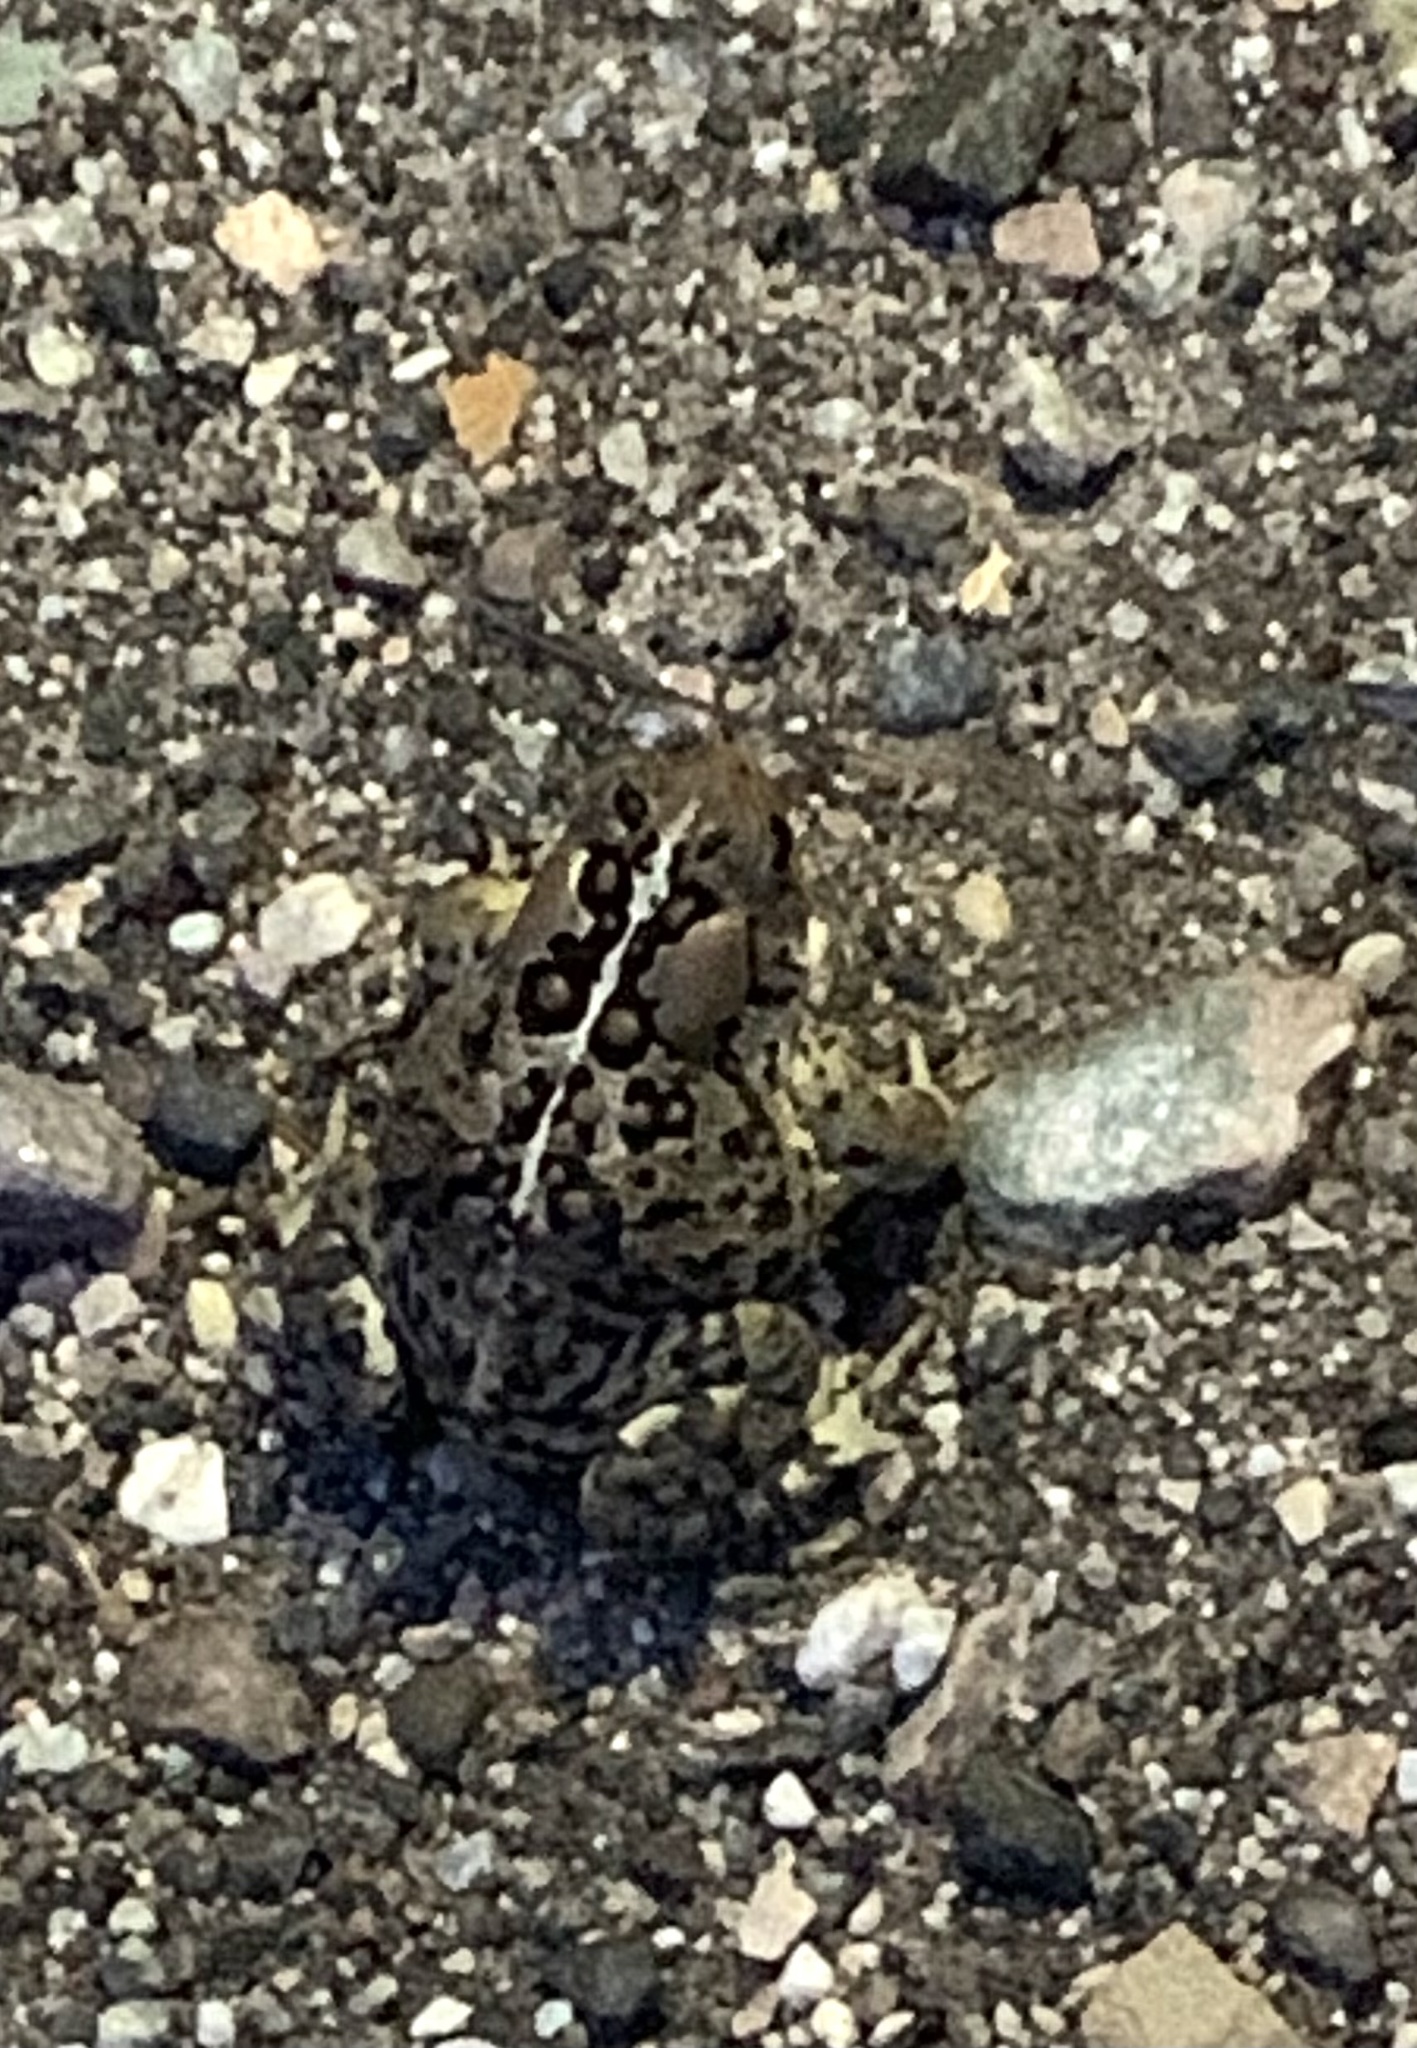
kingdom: Animalia
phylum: Chordata
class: Amphibia
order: Anura
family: Bufonidae
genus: Anaxyrus
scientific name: Anaxyrus americanus
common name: American toad
